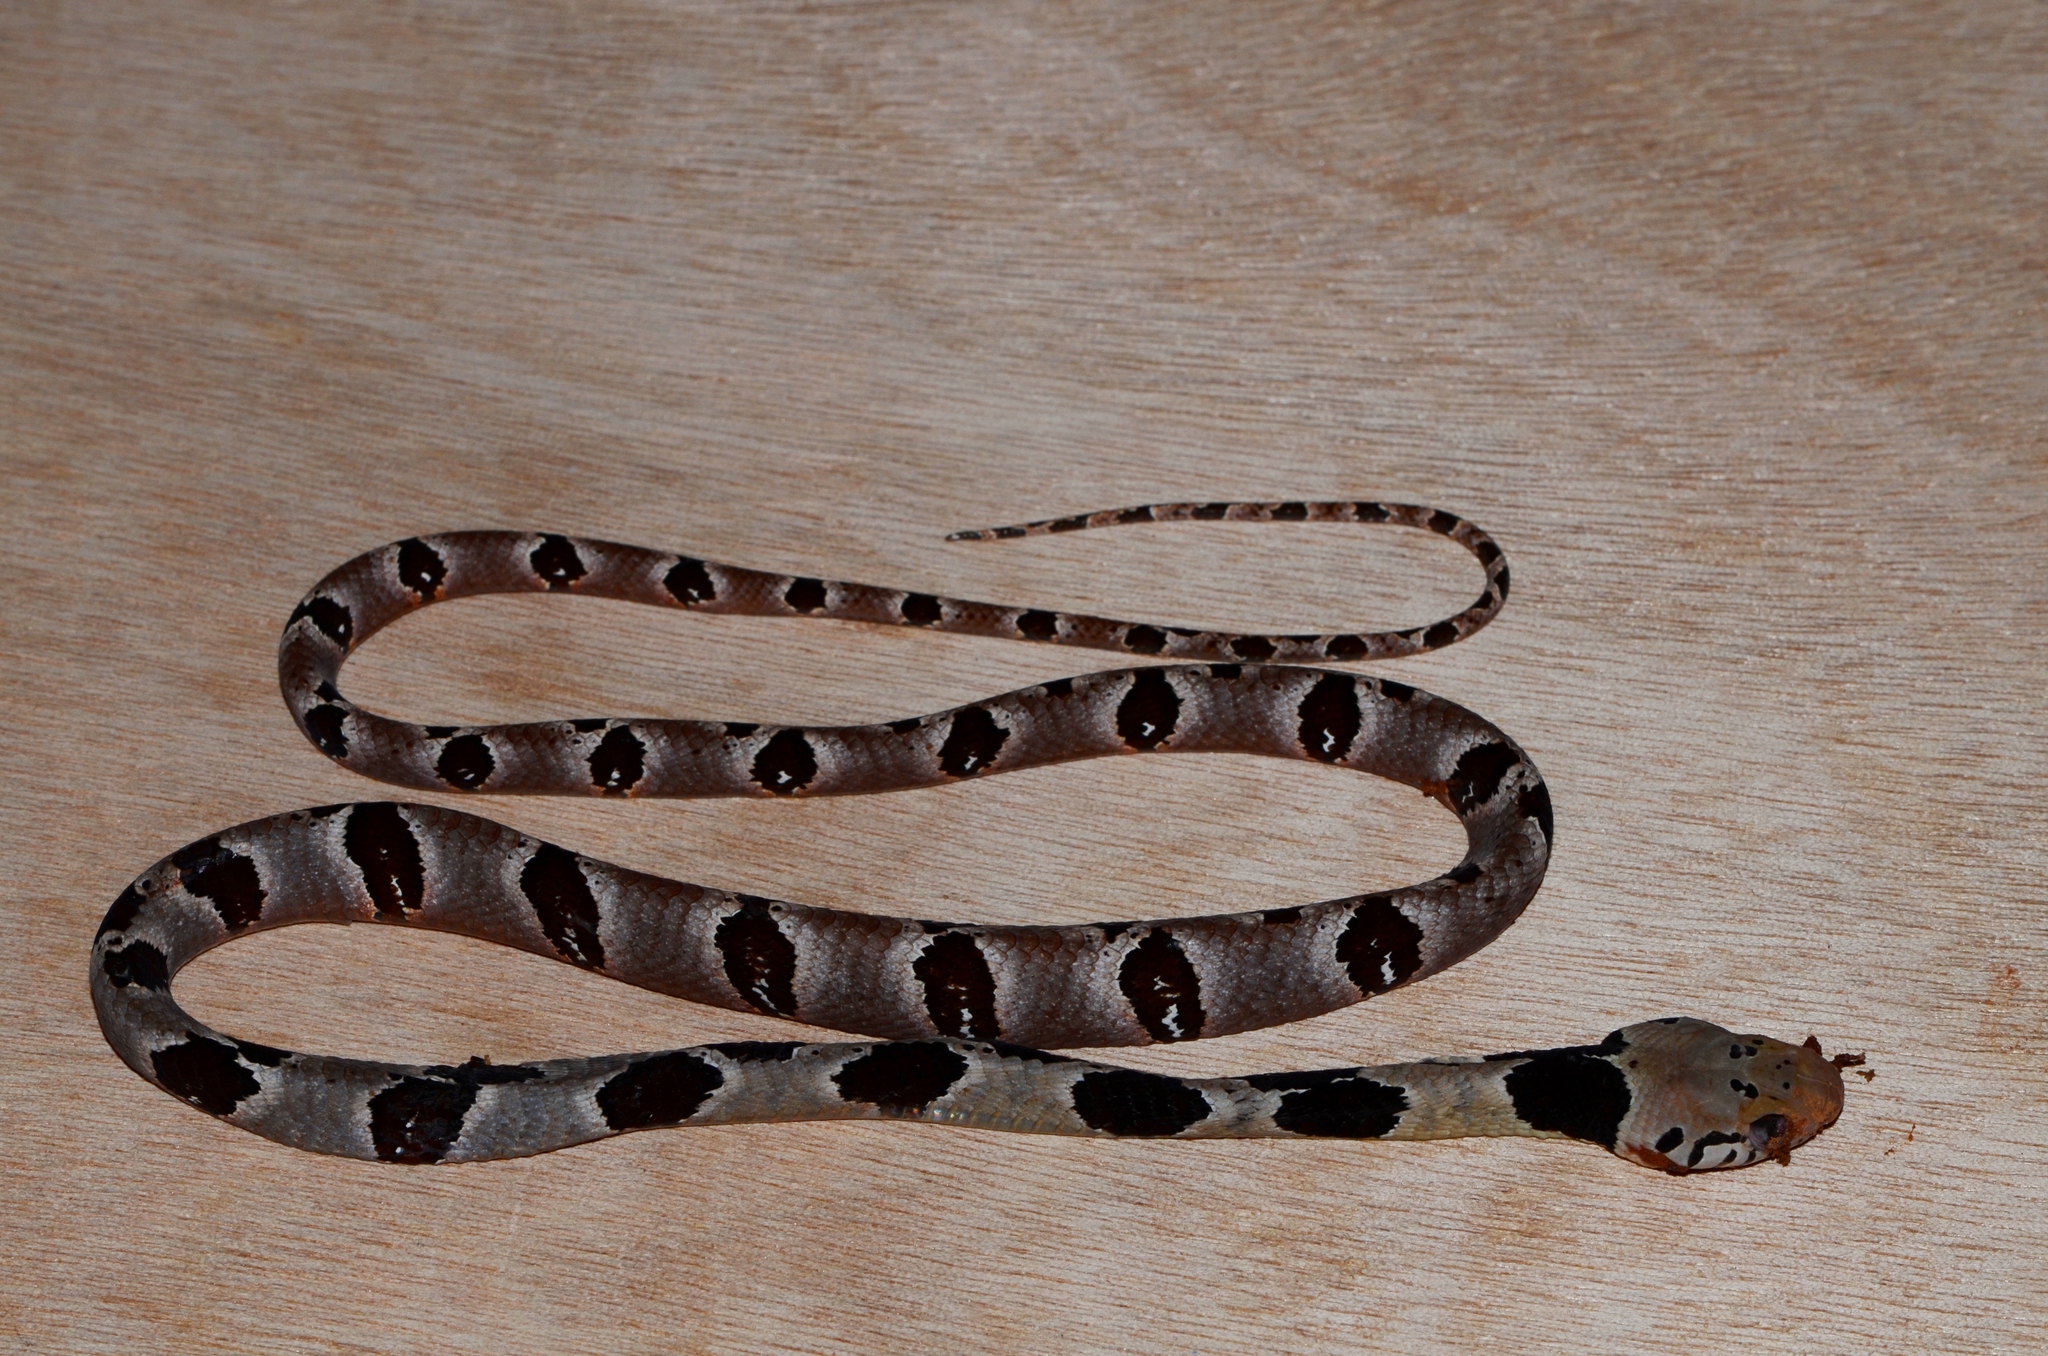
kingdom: Animalia
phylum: Chordata
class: Squamata
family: Colubridae
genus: Toxicodryas
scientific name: Toxicodryas blandingii
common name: Blandings tree snake
